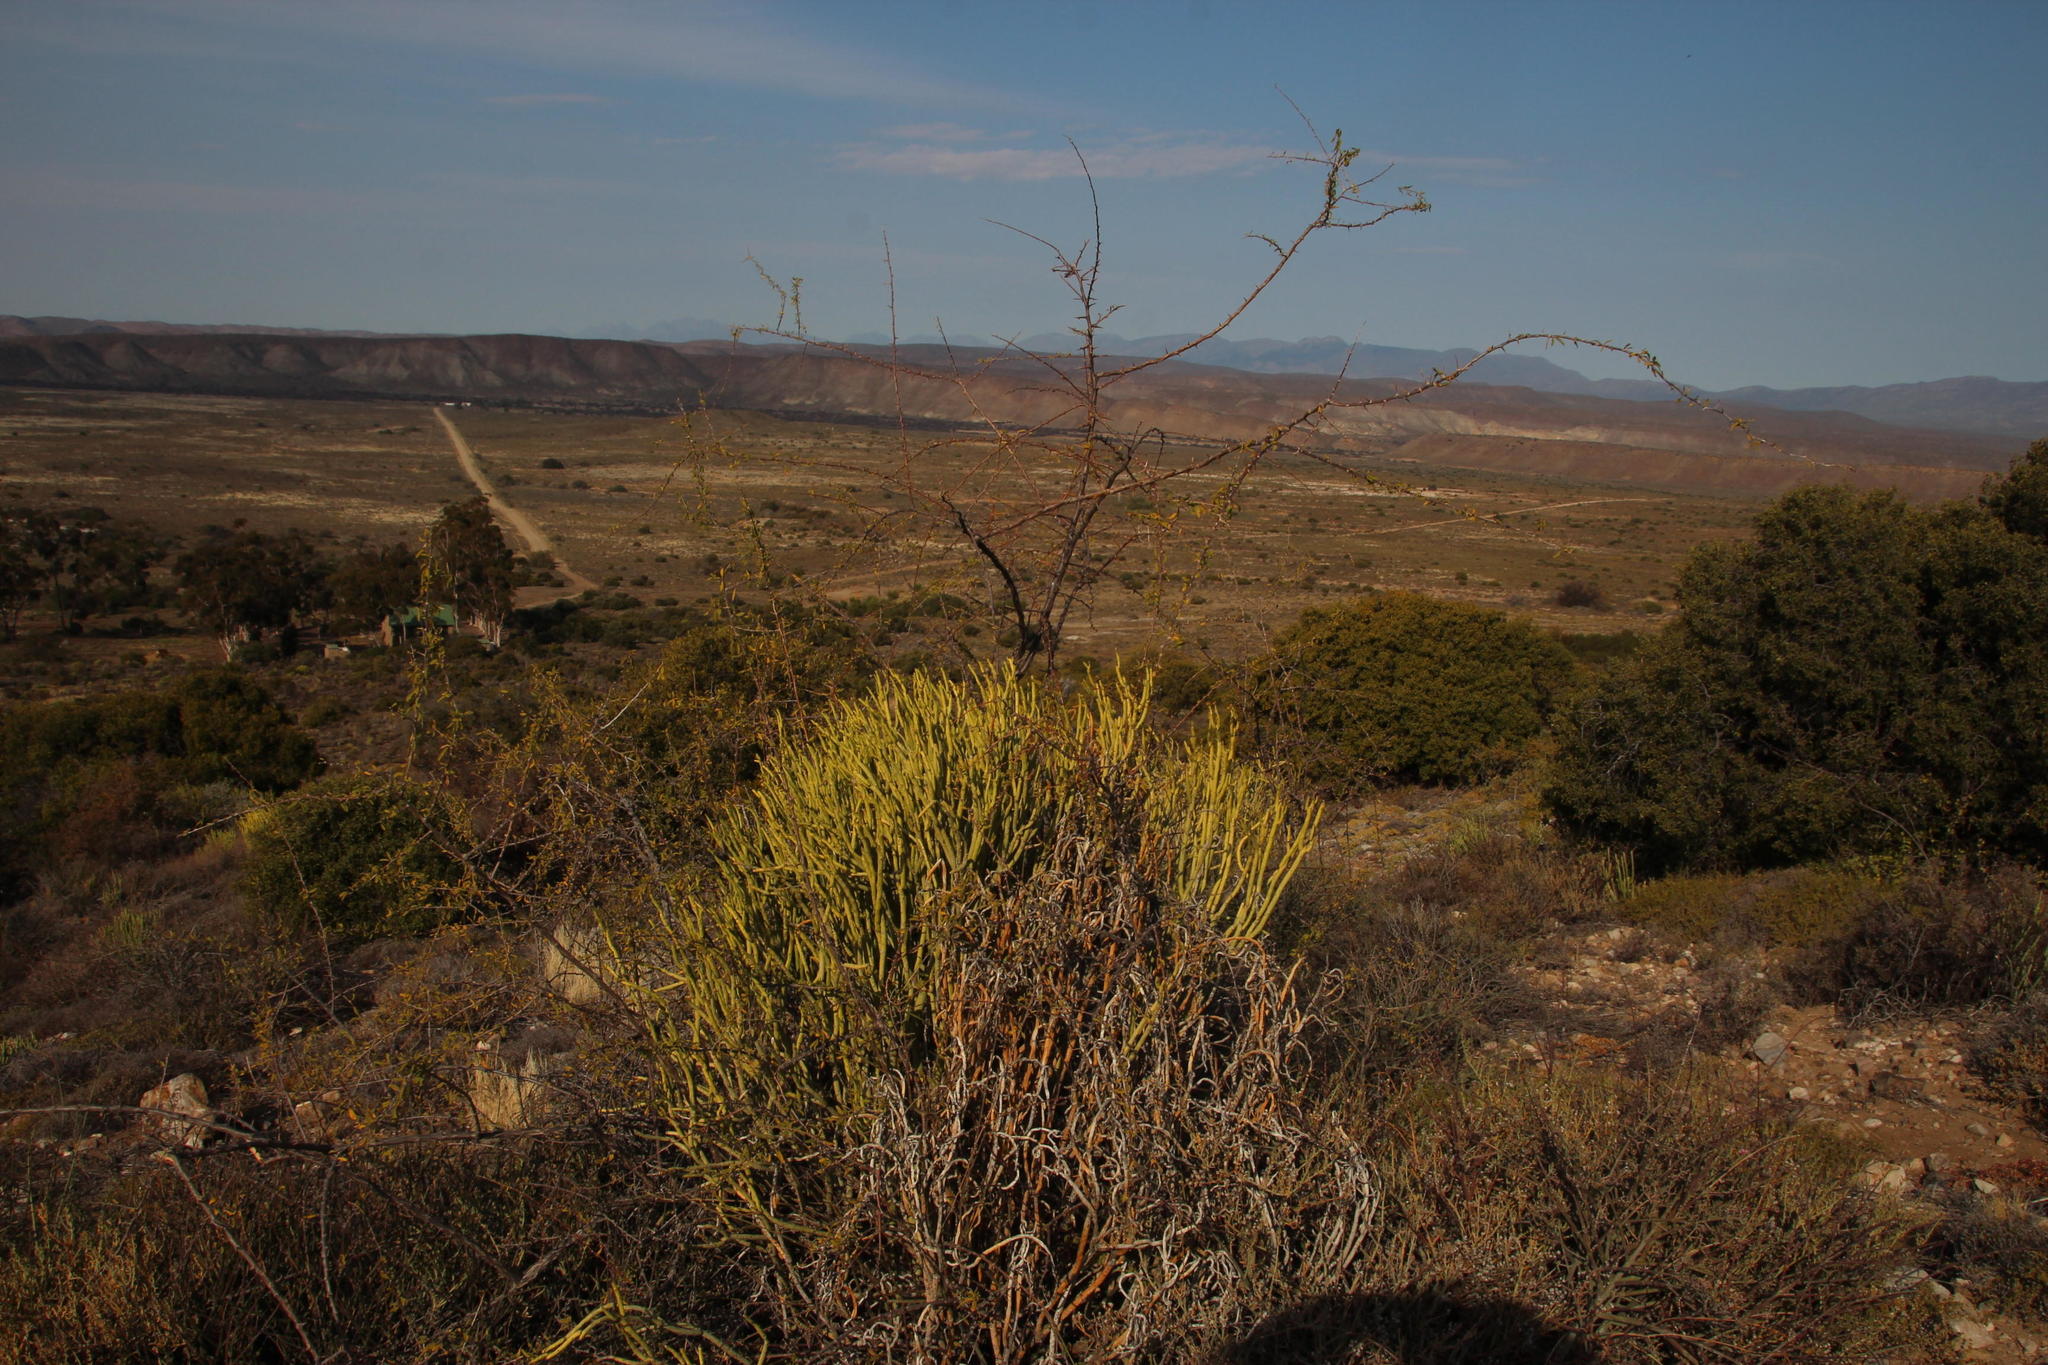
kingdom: Plantae
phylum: Tracheophyta
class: Magnoliopsida
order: Malpighiales
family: Euphorbiaceae
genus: Euphorbia
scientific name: Euphorbia mauritanica
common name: Jackal's-food
